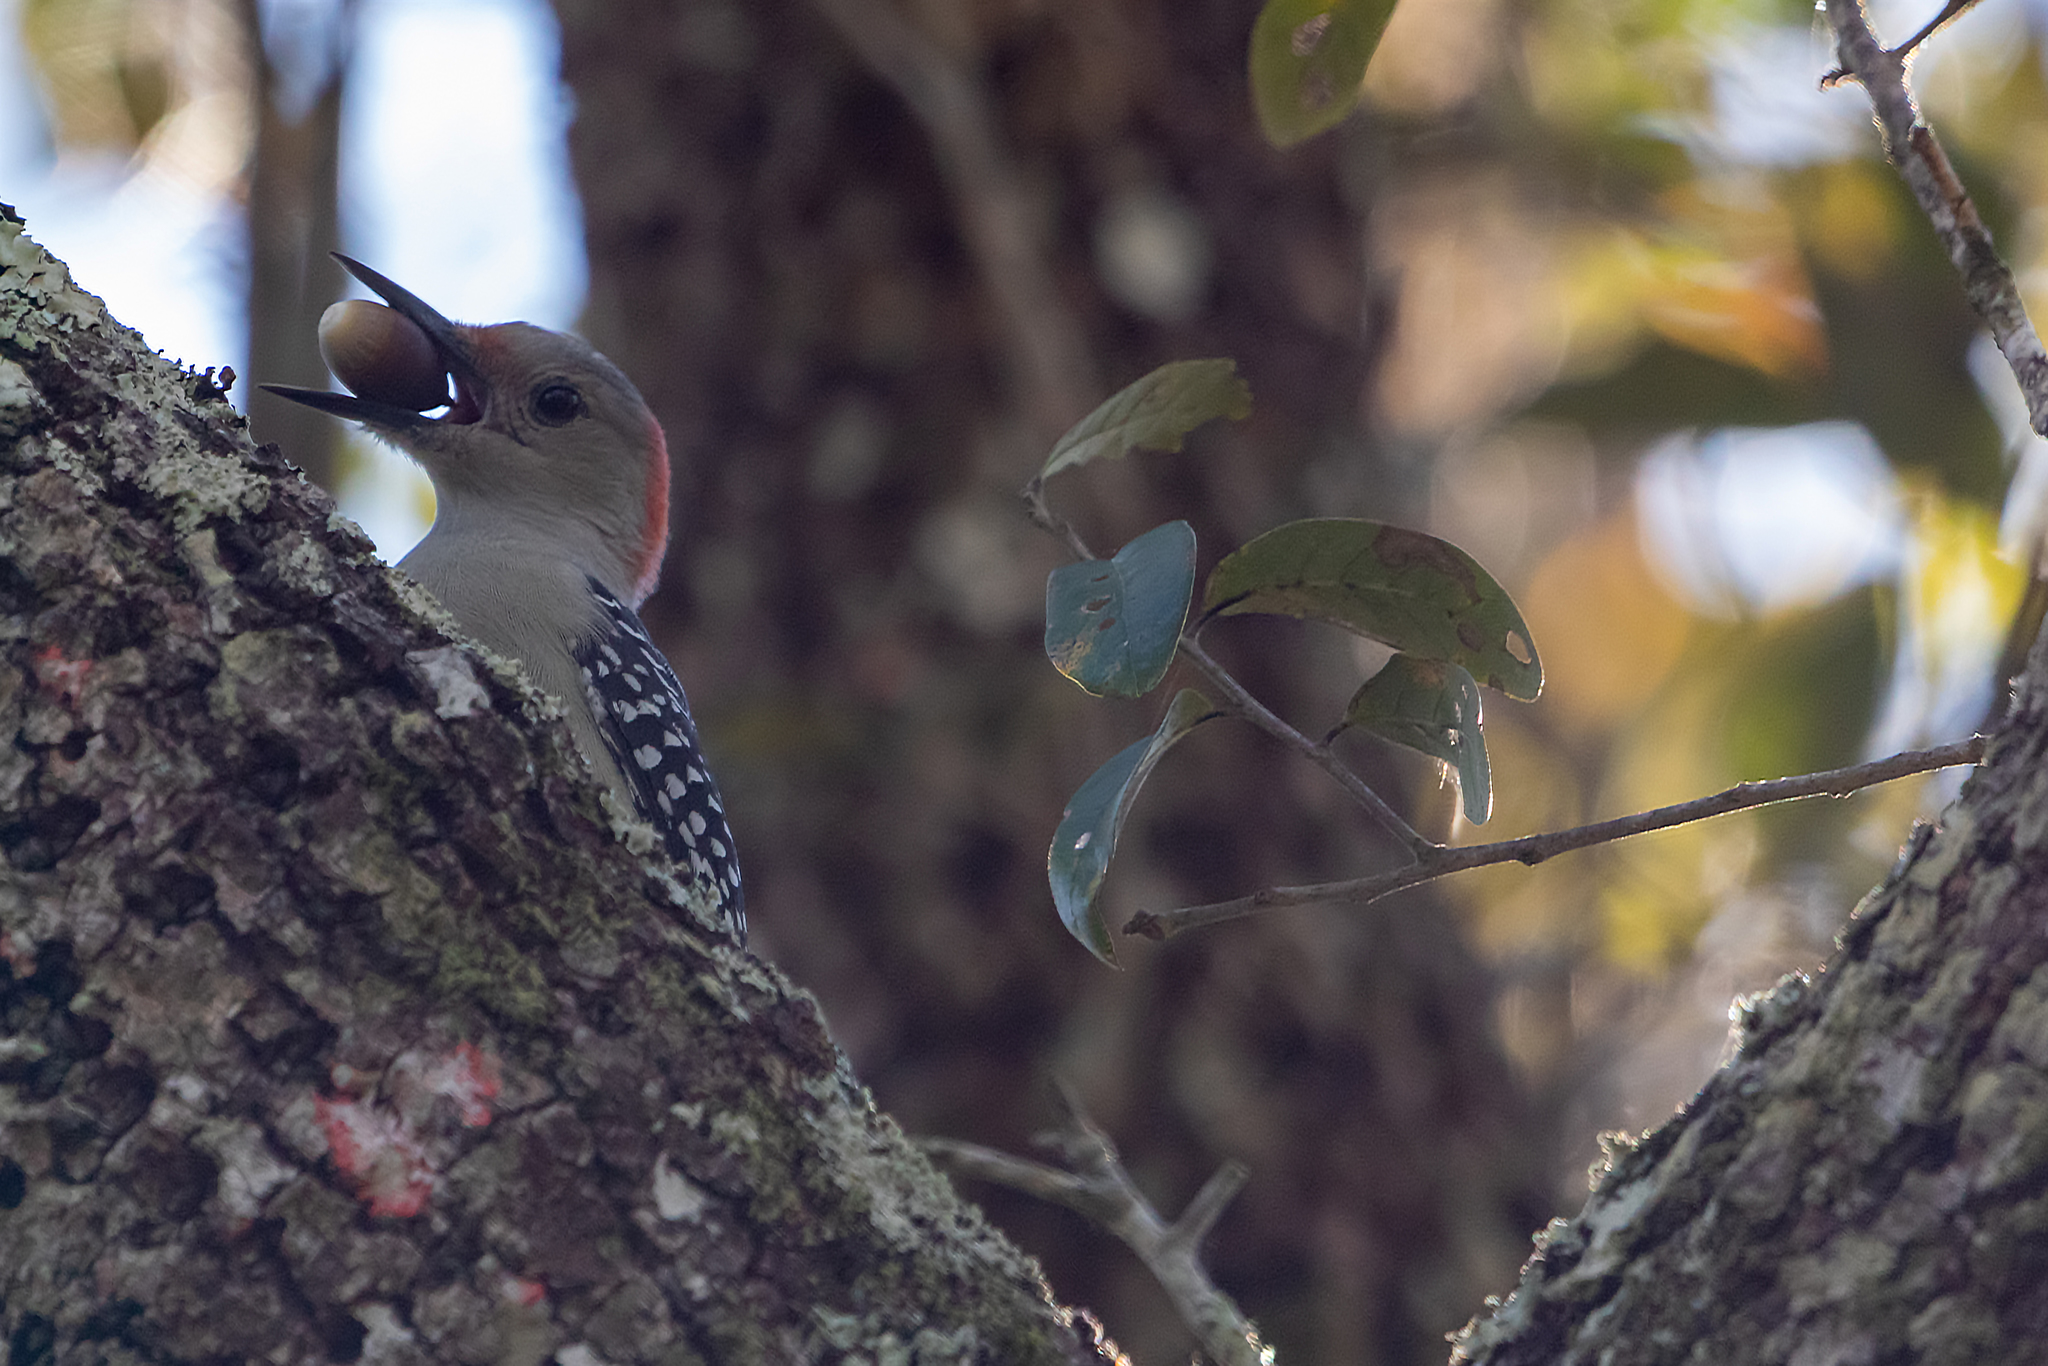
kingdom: Animalia
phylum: Chordata
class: Aves
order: Piciformes
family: Picidae
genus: Melanerpes
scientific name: Melanerpes carolinus
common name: Red-bellied woodpecker
